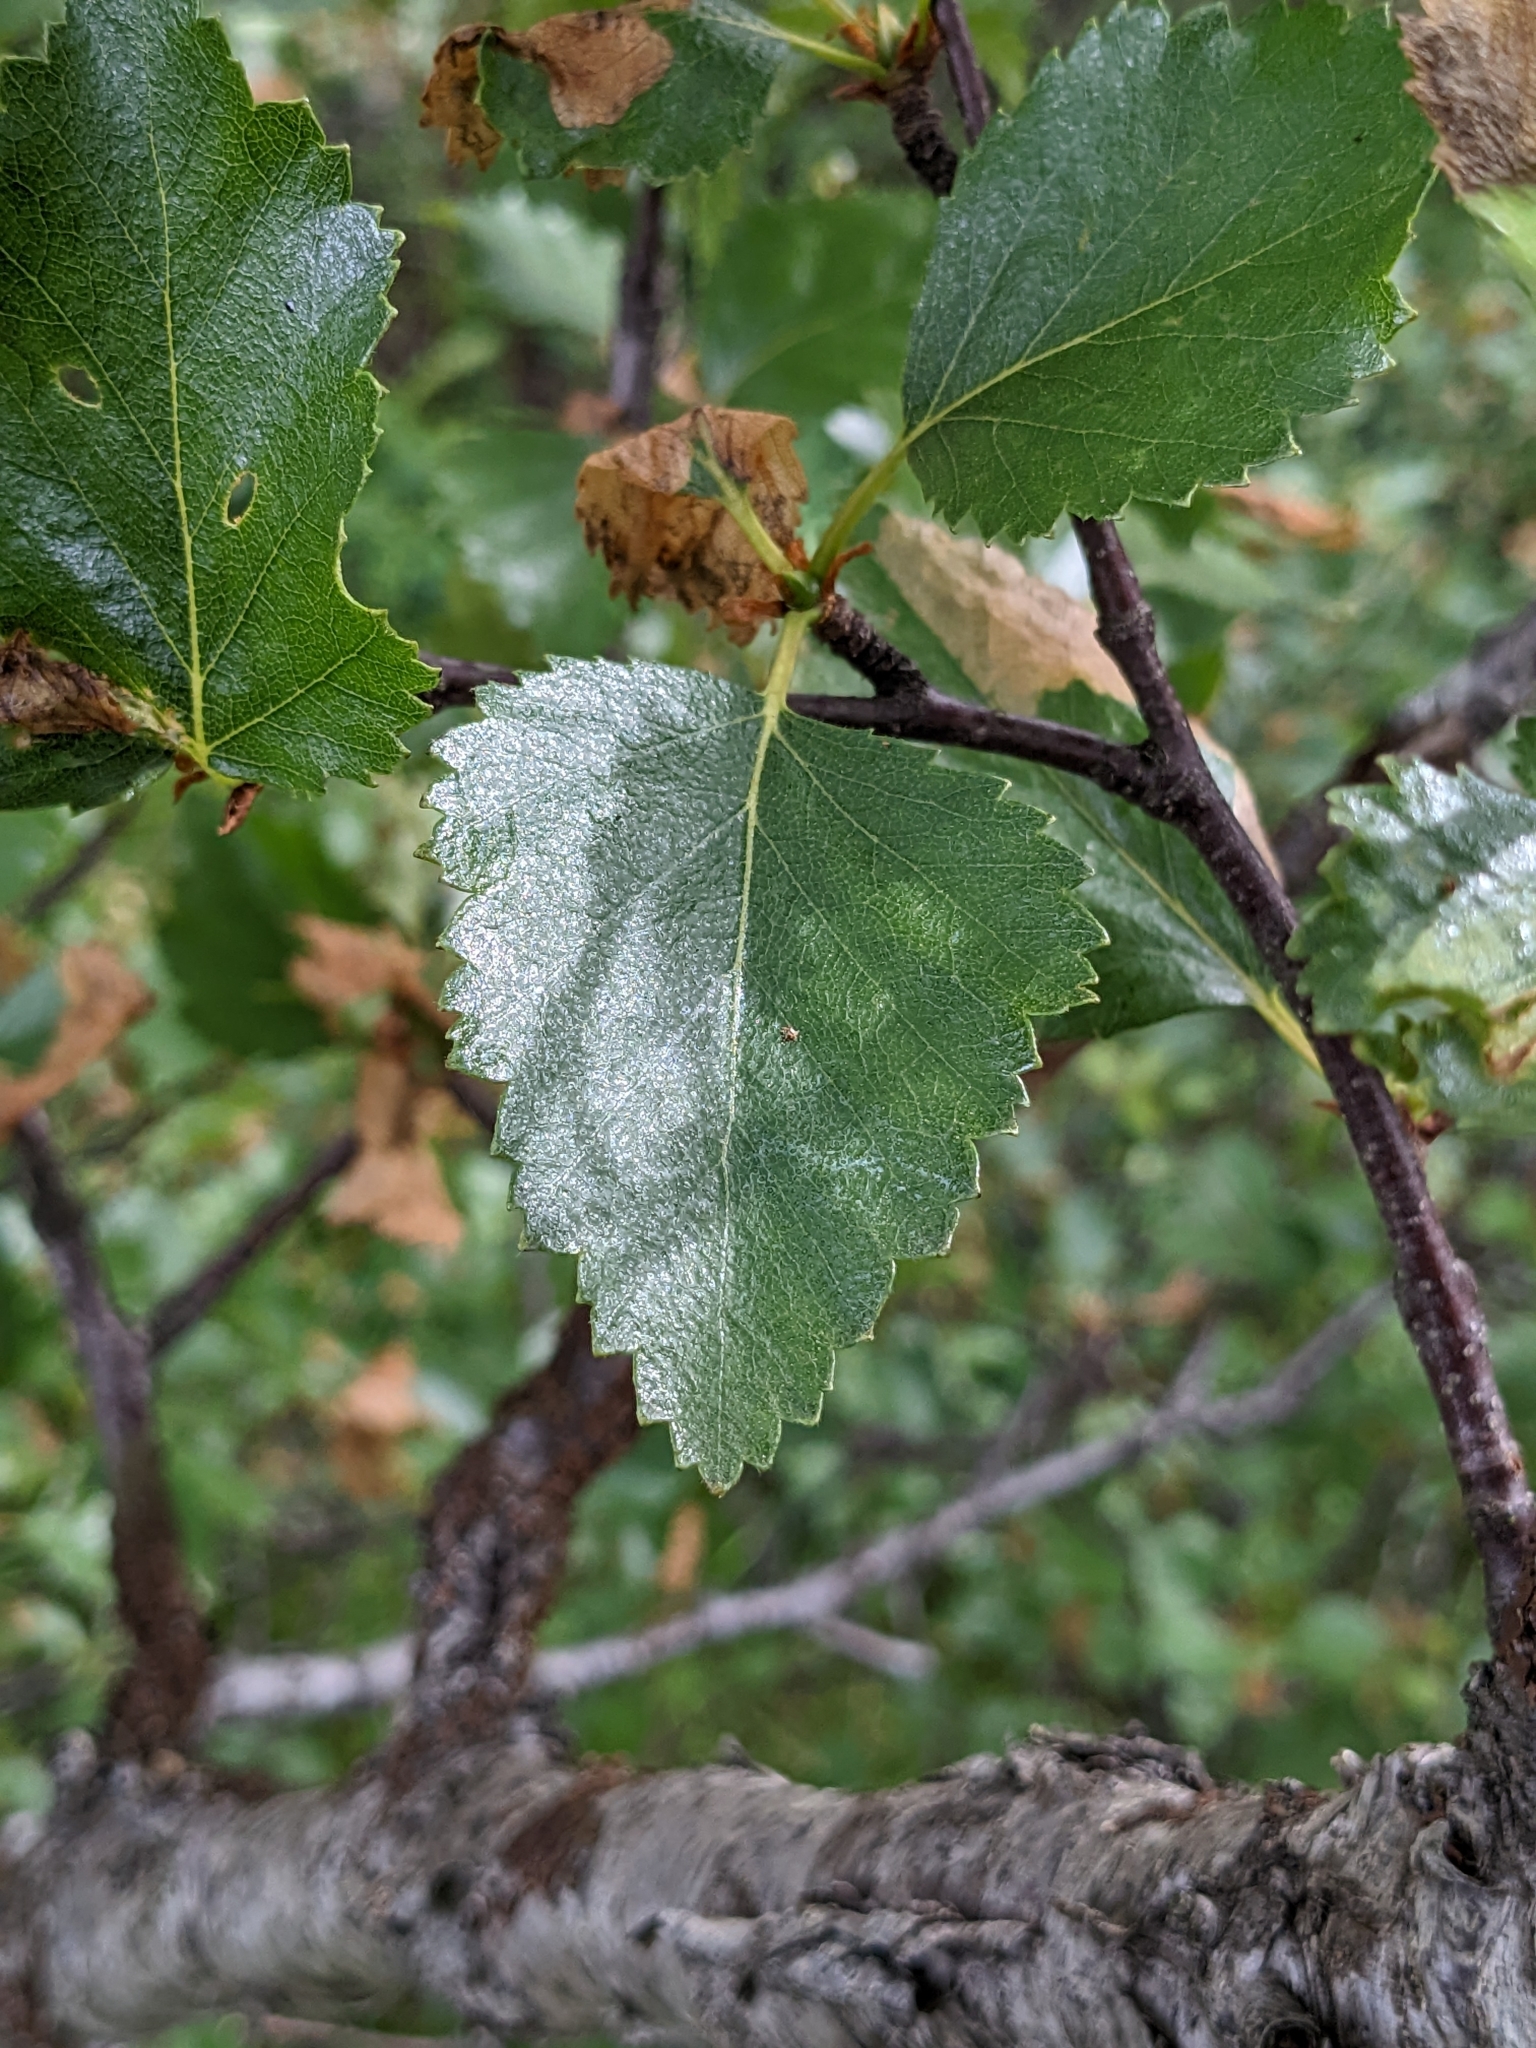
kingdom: Plantae
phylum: Tracheophyta
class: Magnoliopsida
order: Fagales
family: Betulaceae
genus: Betula
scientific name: Betula pubescens
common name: Downy birch
